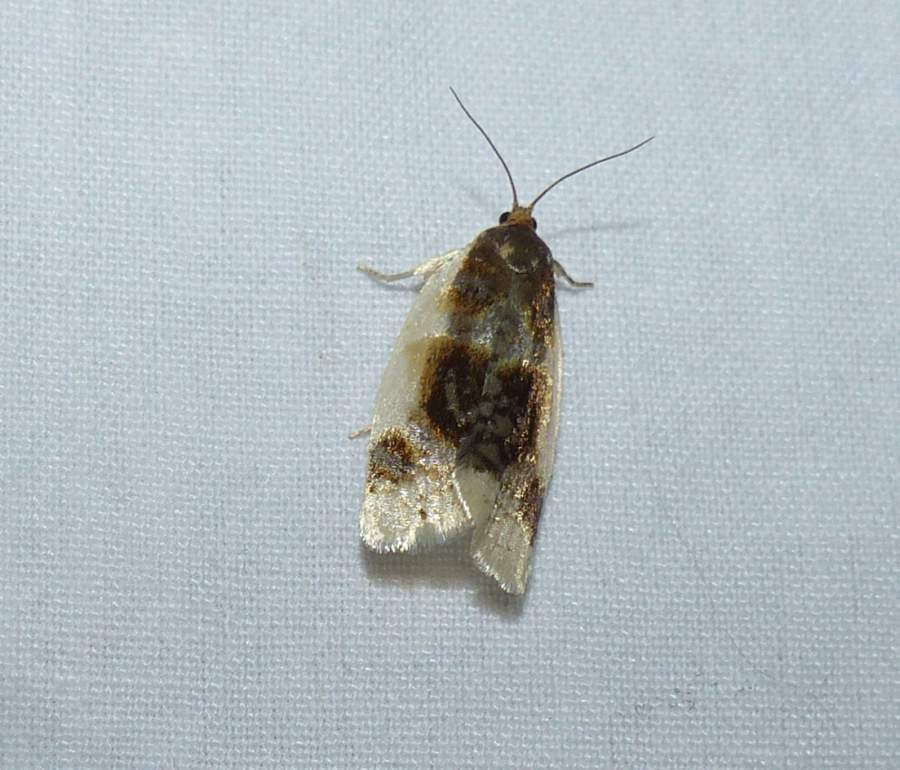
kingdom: Animalia
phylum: Arthropoda
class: Insecta
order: Lepidoptera
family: Tortricidae
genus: Clepsis
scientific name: Clepsis melaleucanus
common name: American apple tortrix
